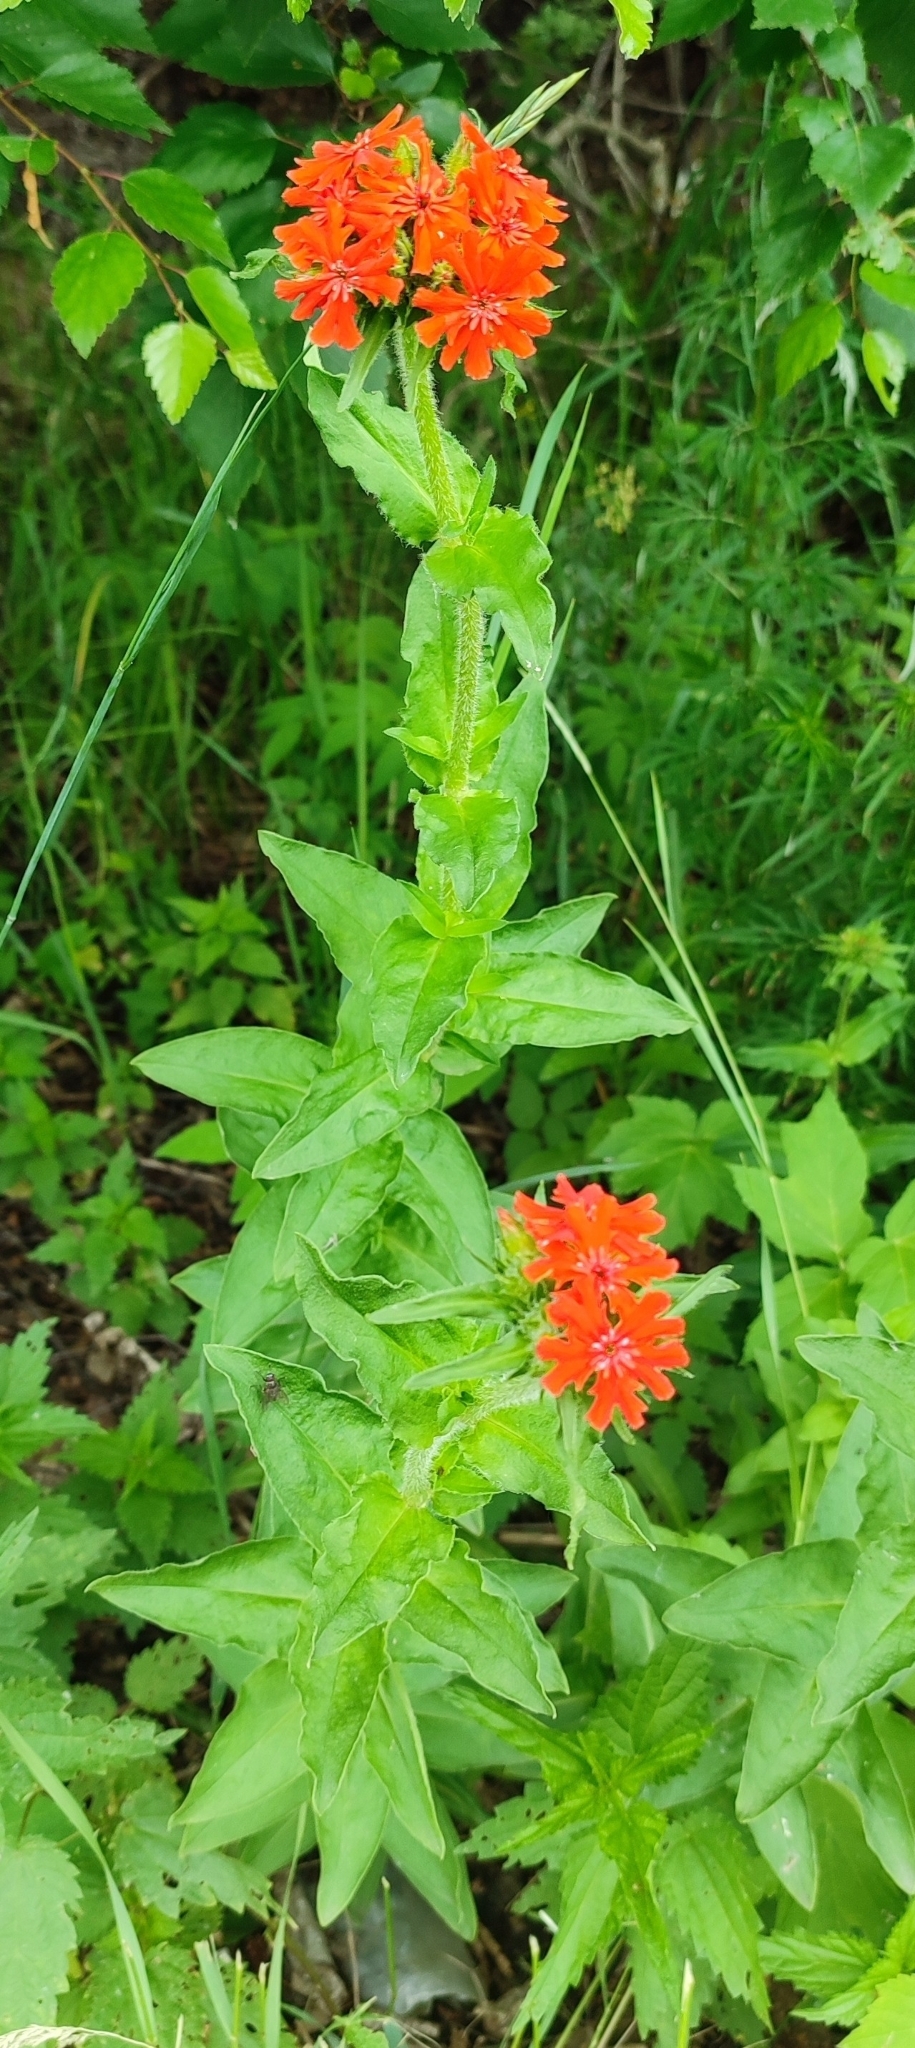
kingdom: Plantae
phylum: Tracheophyta
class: Magnoliopsida
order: Caryophyllales
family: Caryophyllaceae
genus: Silene
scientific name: Silene chalcedonica
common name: Maltese-cross
